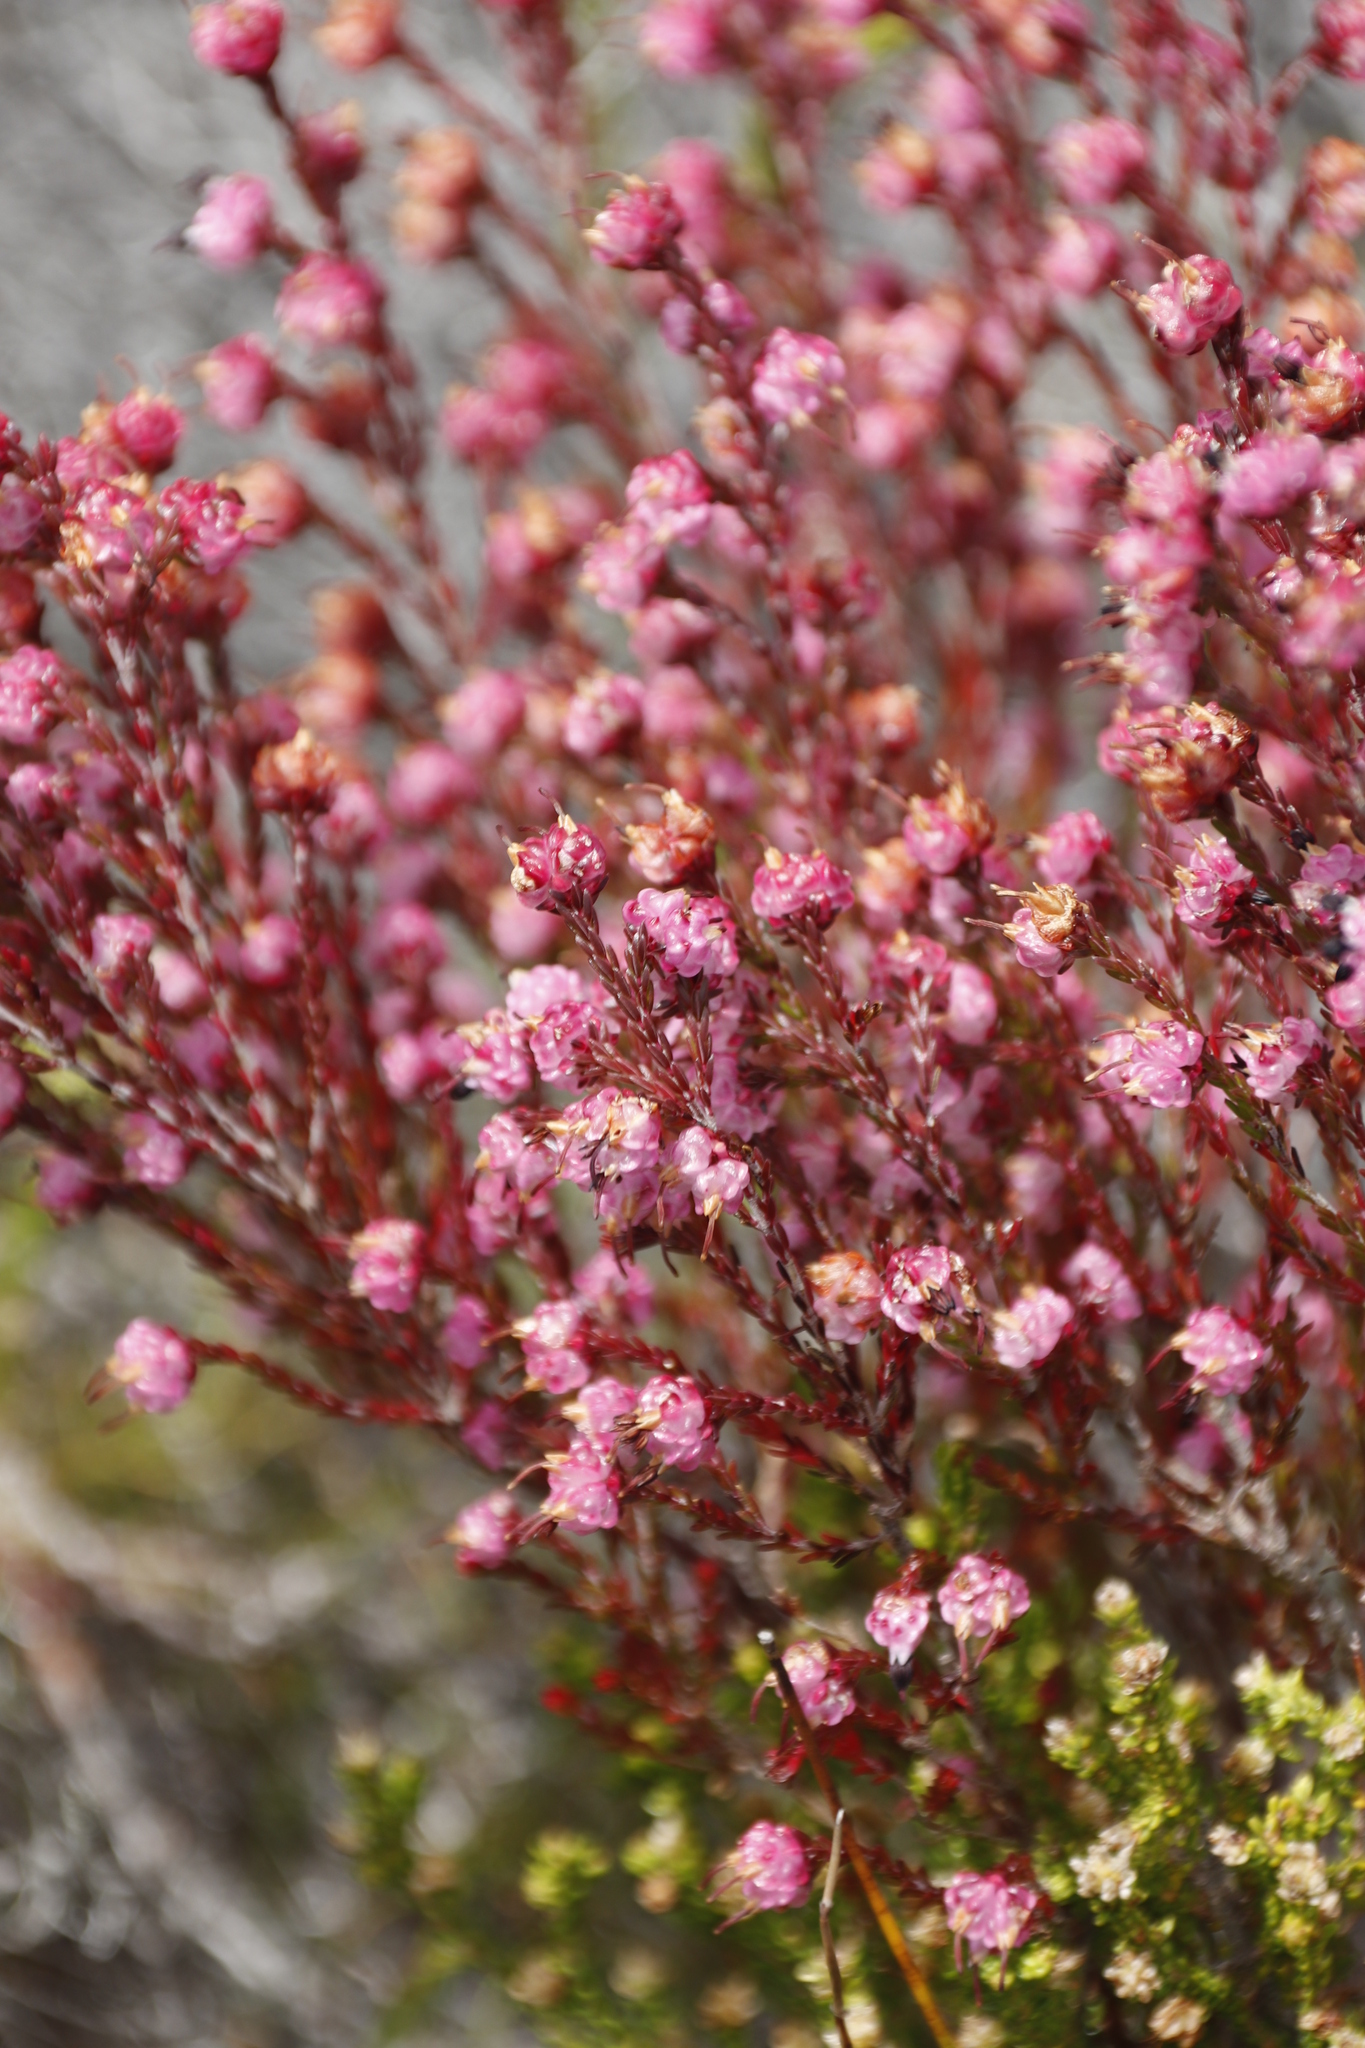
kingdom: Plantae
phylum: Tracheophyta
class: Magnoliopsida
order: Ericales
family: Ericaceae
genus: Erica
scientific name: Erica spumosa
